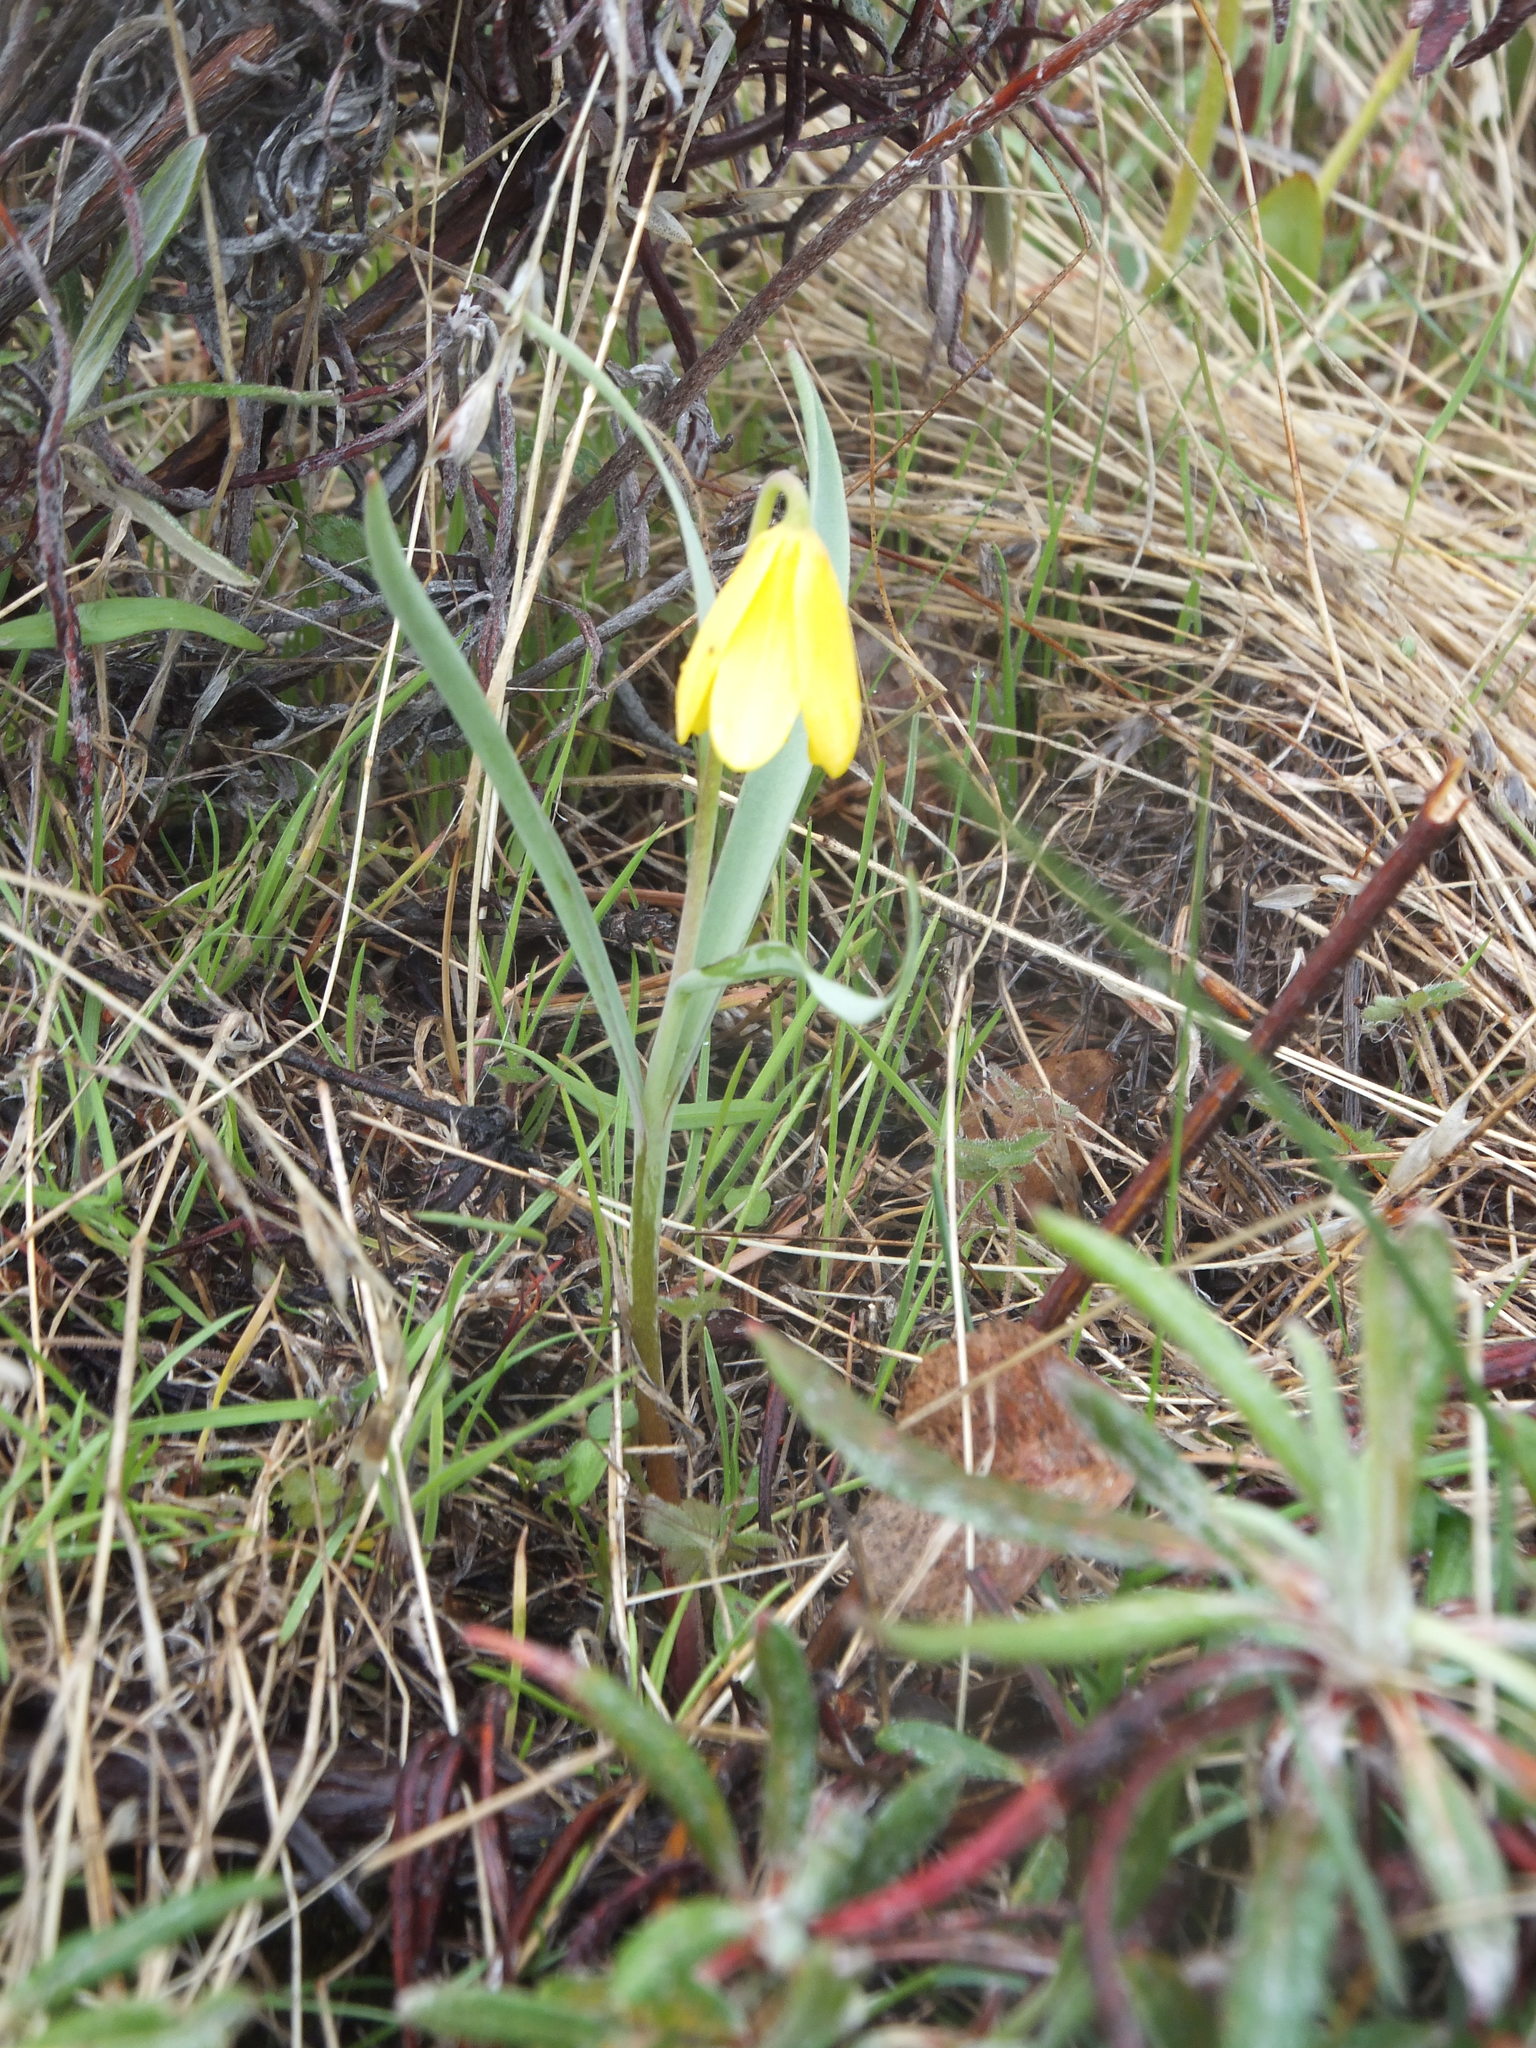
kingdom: Plantae
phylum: Tracheophyta
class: Liliopsida
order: Liliales
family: Liliaceae
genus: Fritillaria
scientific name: Fritillaria pudica
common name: Yellow fritillary
